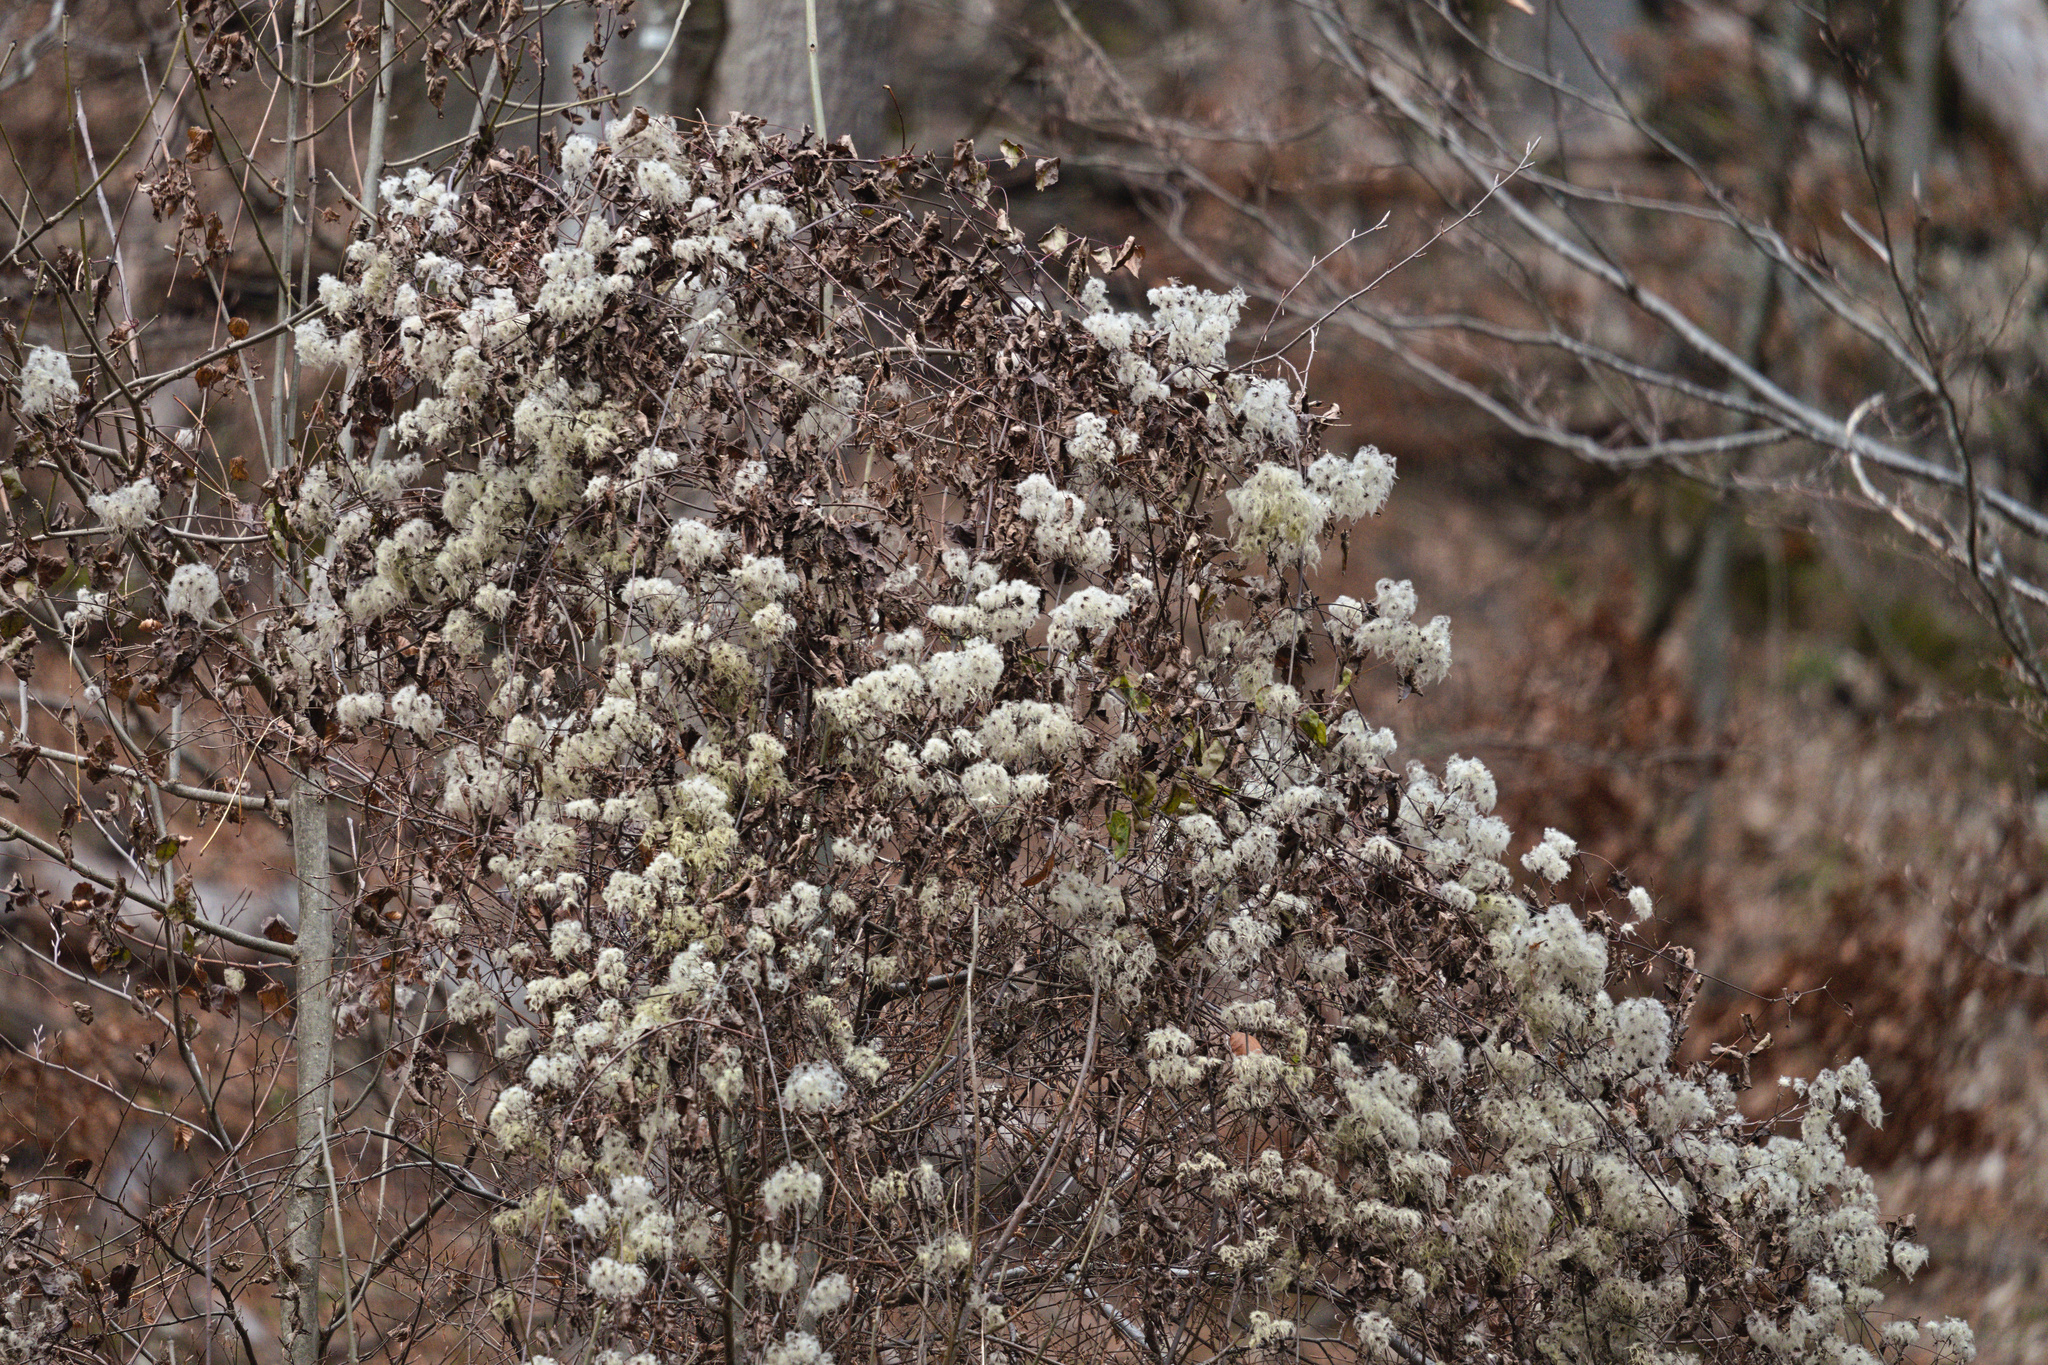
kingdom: Plantae
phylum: Tracheophyta
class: Magnoliopsida
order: Ranunculales
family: Ranunculaceae
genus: Clematis
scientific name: Clematis vitalba
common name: Evergreen clematis
